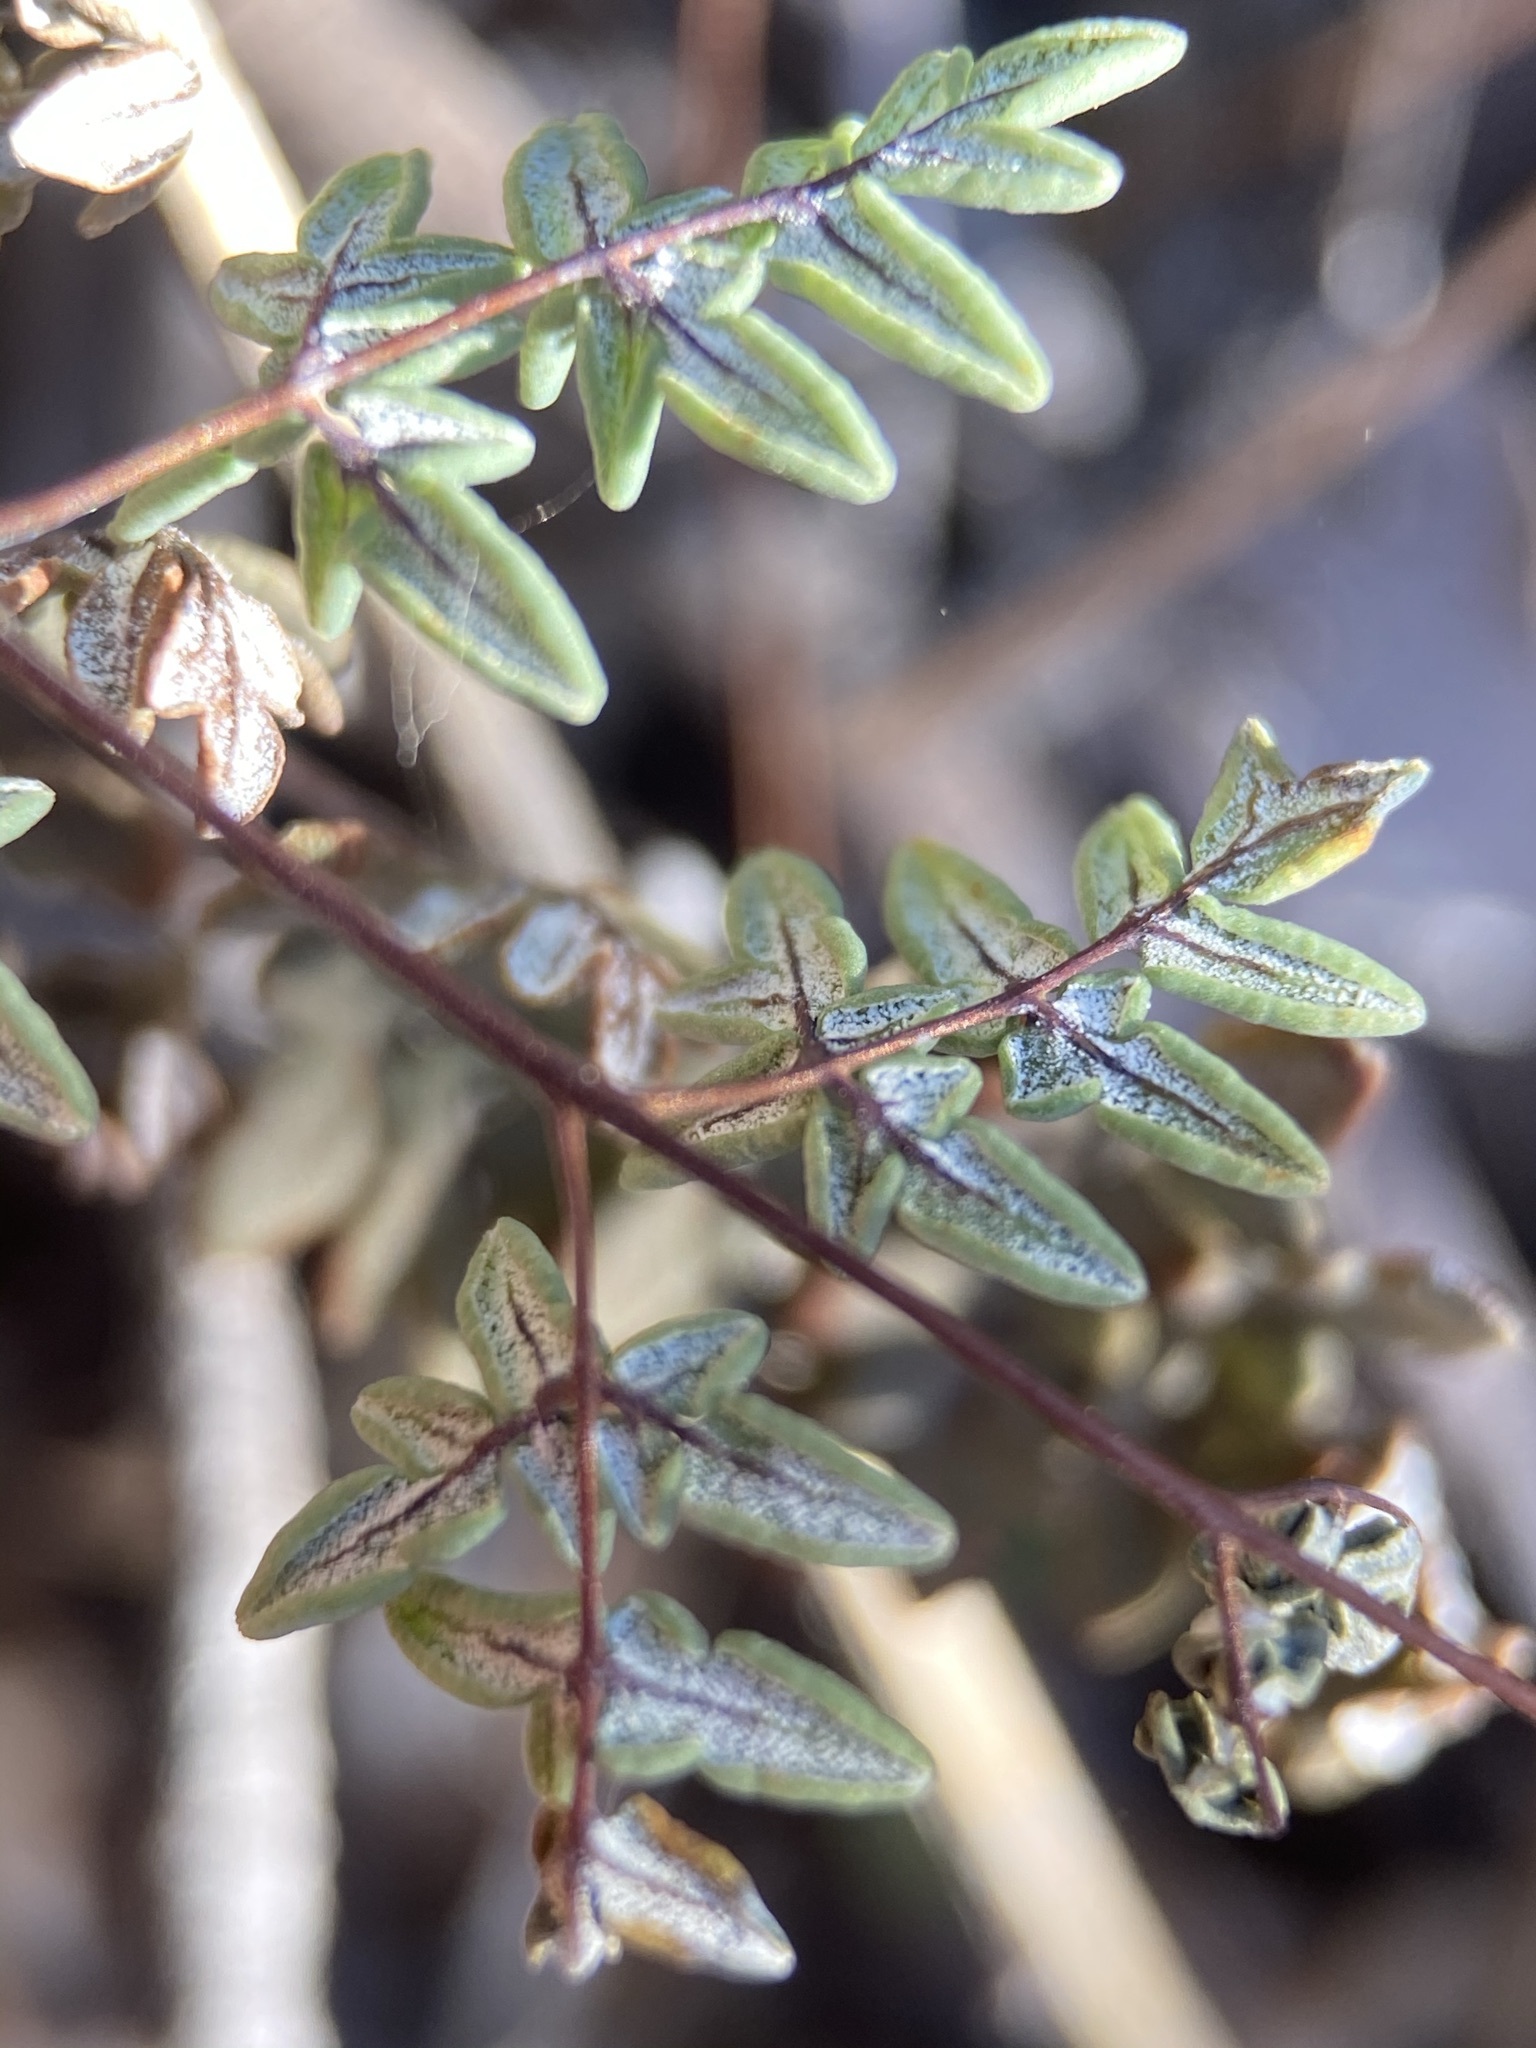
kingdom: Plantae
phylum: Tracheophyta
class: Polypodiopsida
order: Polypodiales
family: Pteridaceae
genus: Argyrochosma
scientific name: Argyrochosma limitanea
